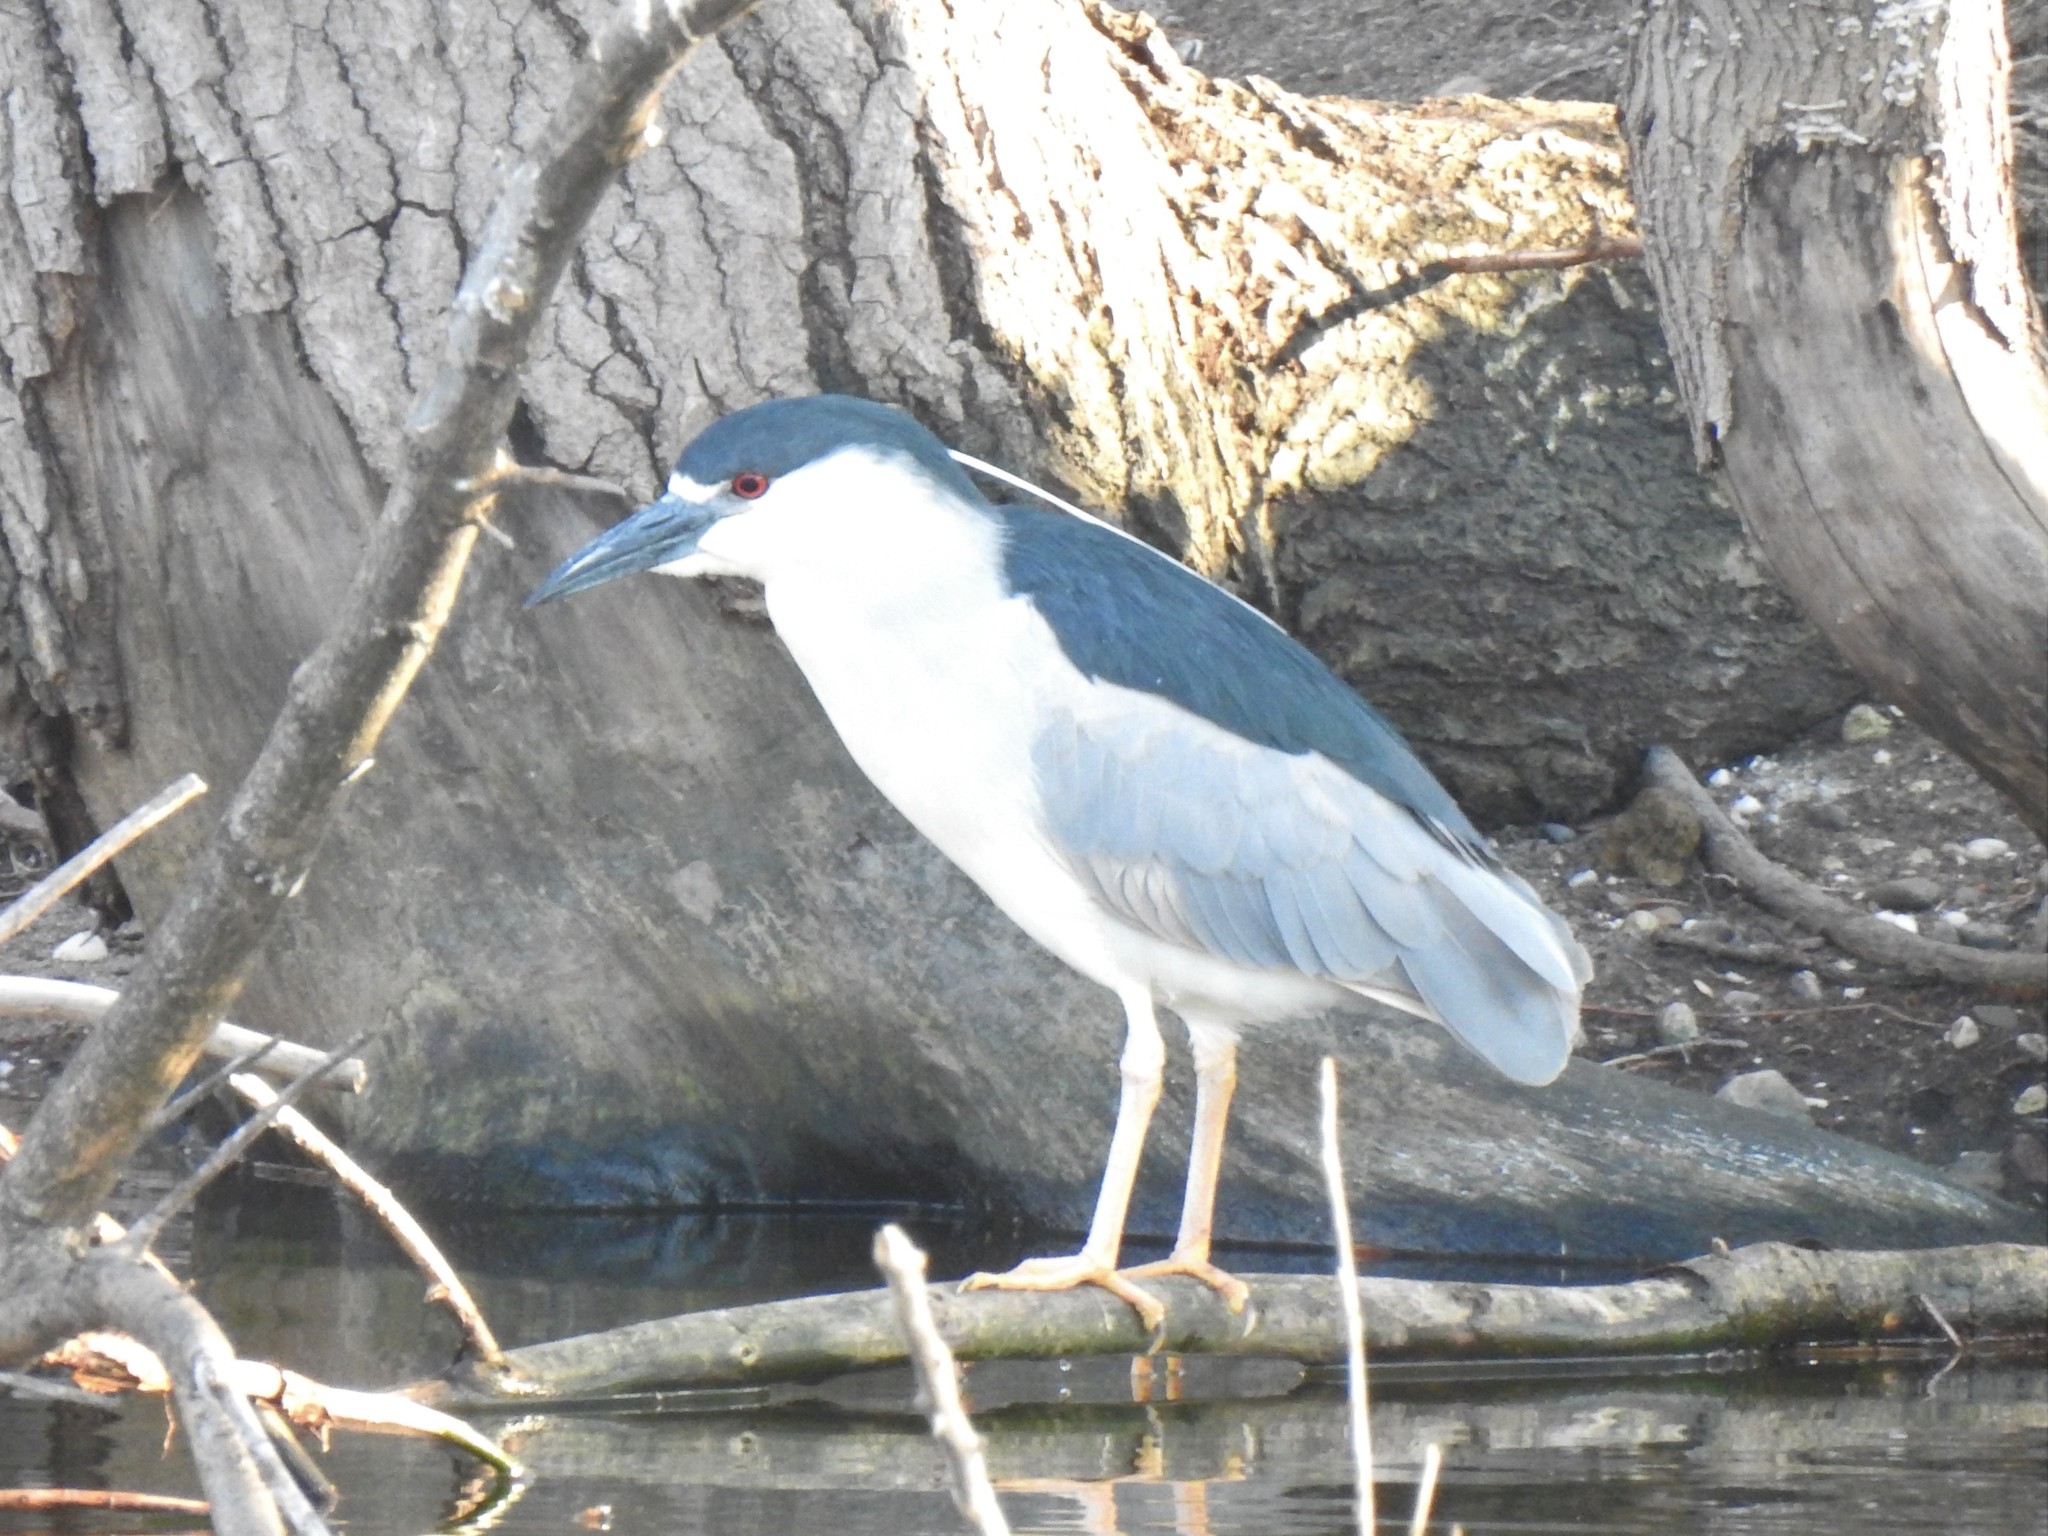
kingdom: Animalia
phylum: Chordata
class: Aves
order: Pelecaniformes
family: Ardeidae
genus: Nycticorax
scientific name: Nycticorax nycticorax
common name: Black-crowned night heron
